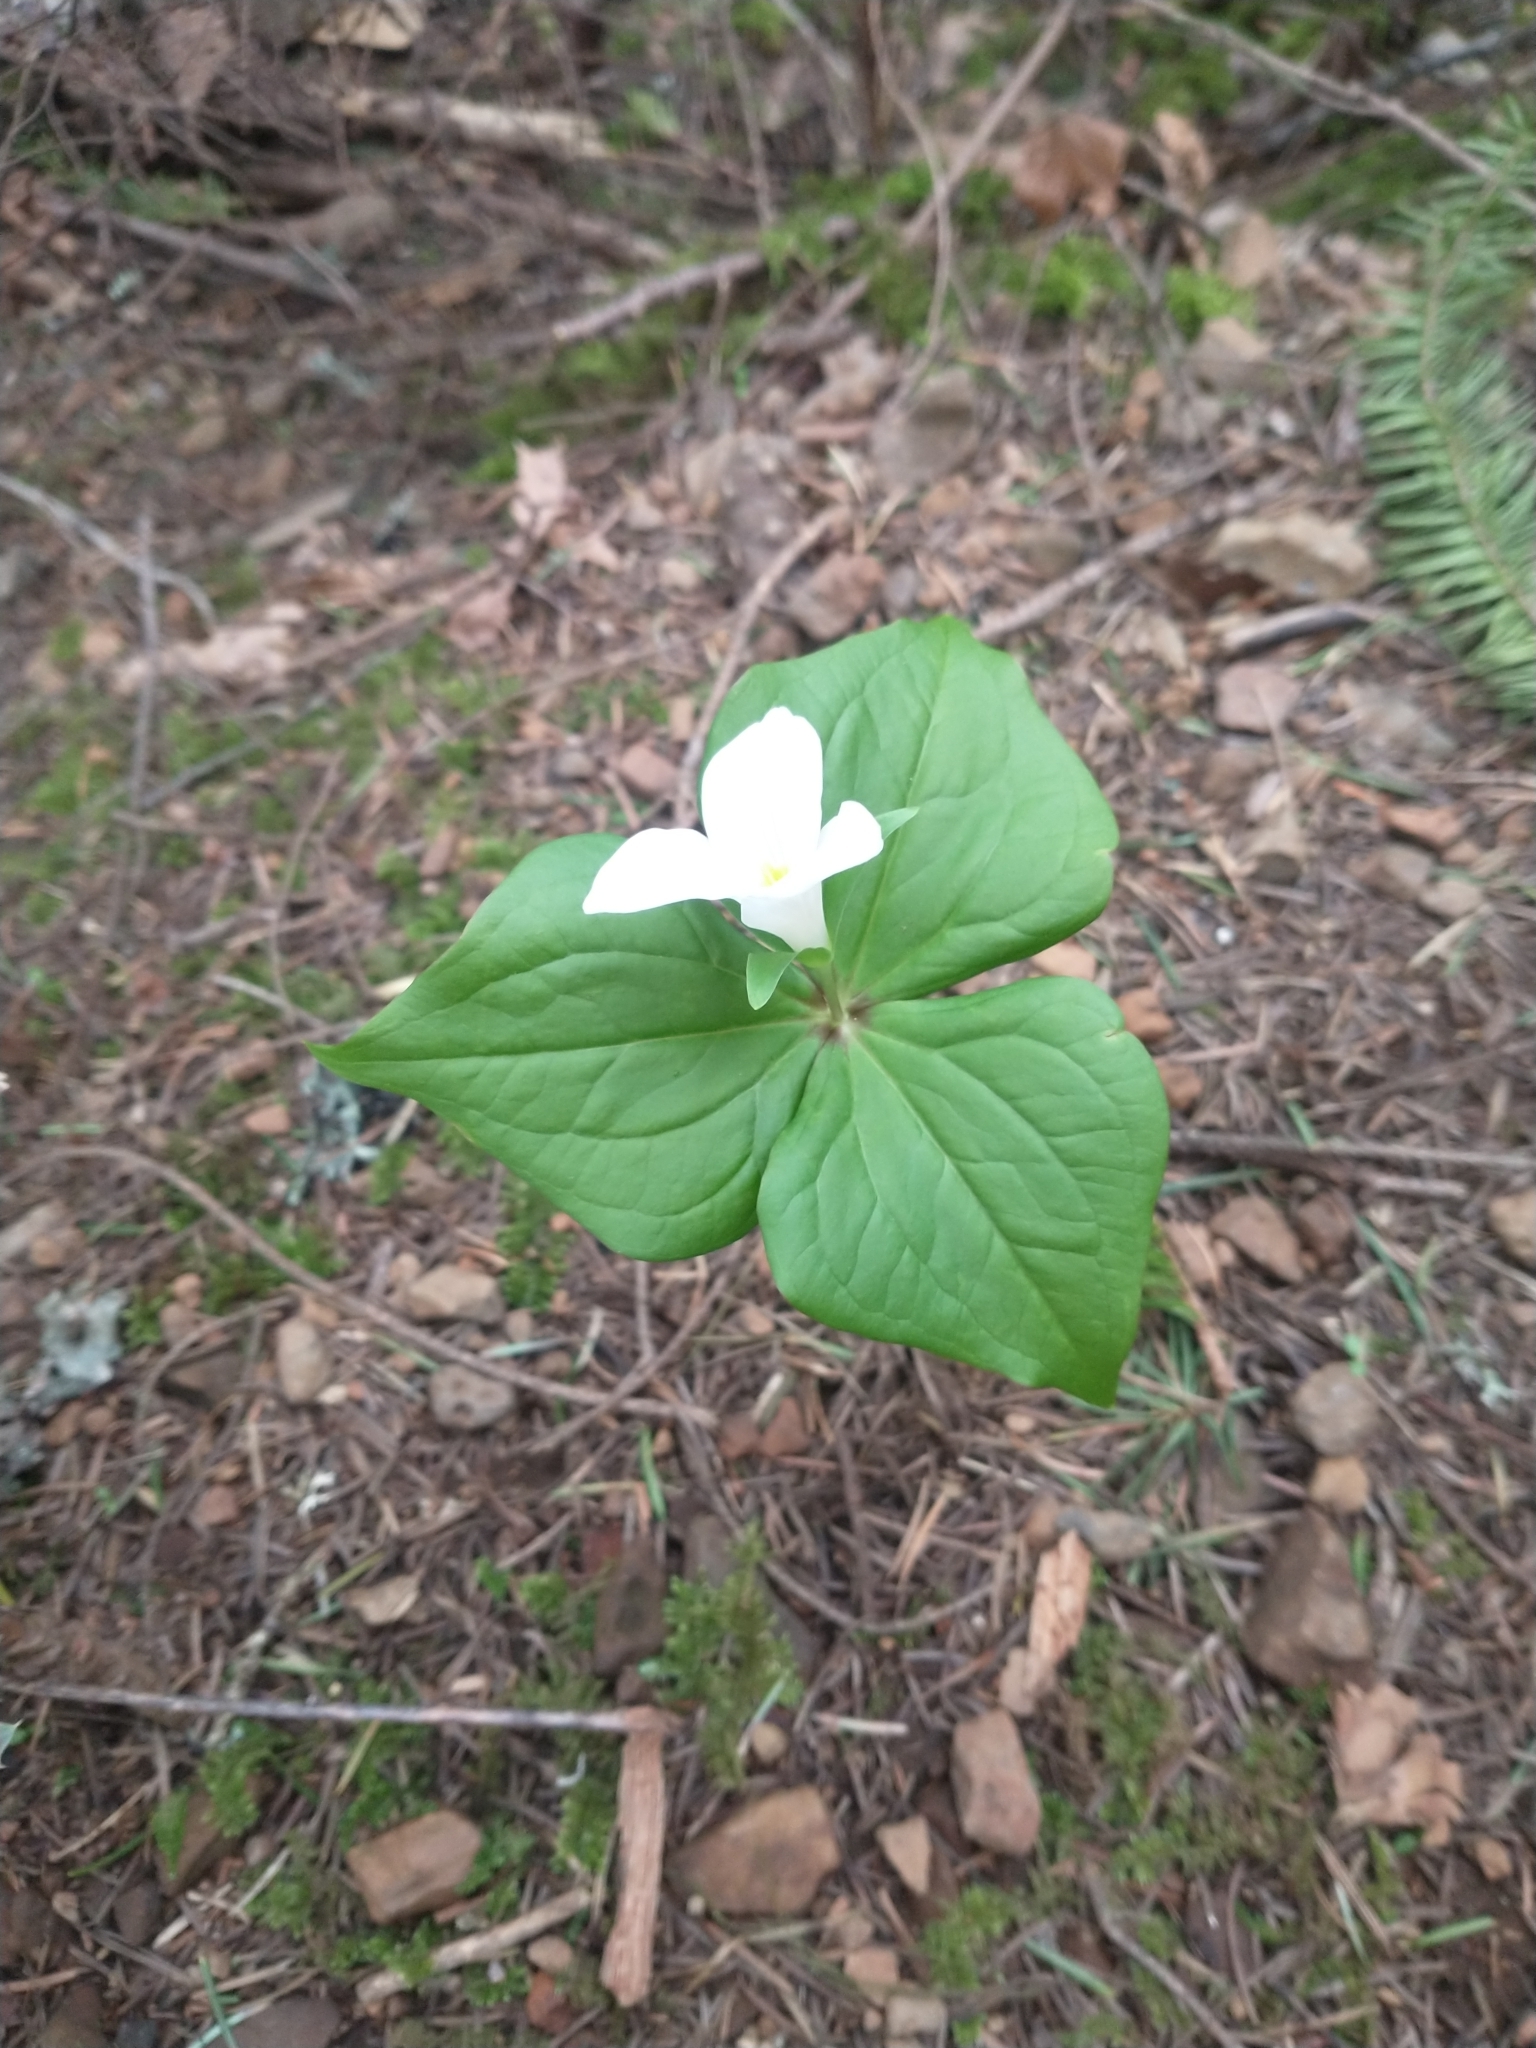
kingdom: Plantae
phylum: Tracheophyta
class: Liliopsida
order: Liliales
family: Melanthiaceae
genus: Trillium
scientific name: Trillium ovatum
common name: Pacific trillium
